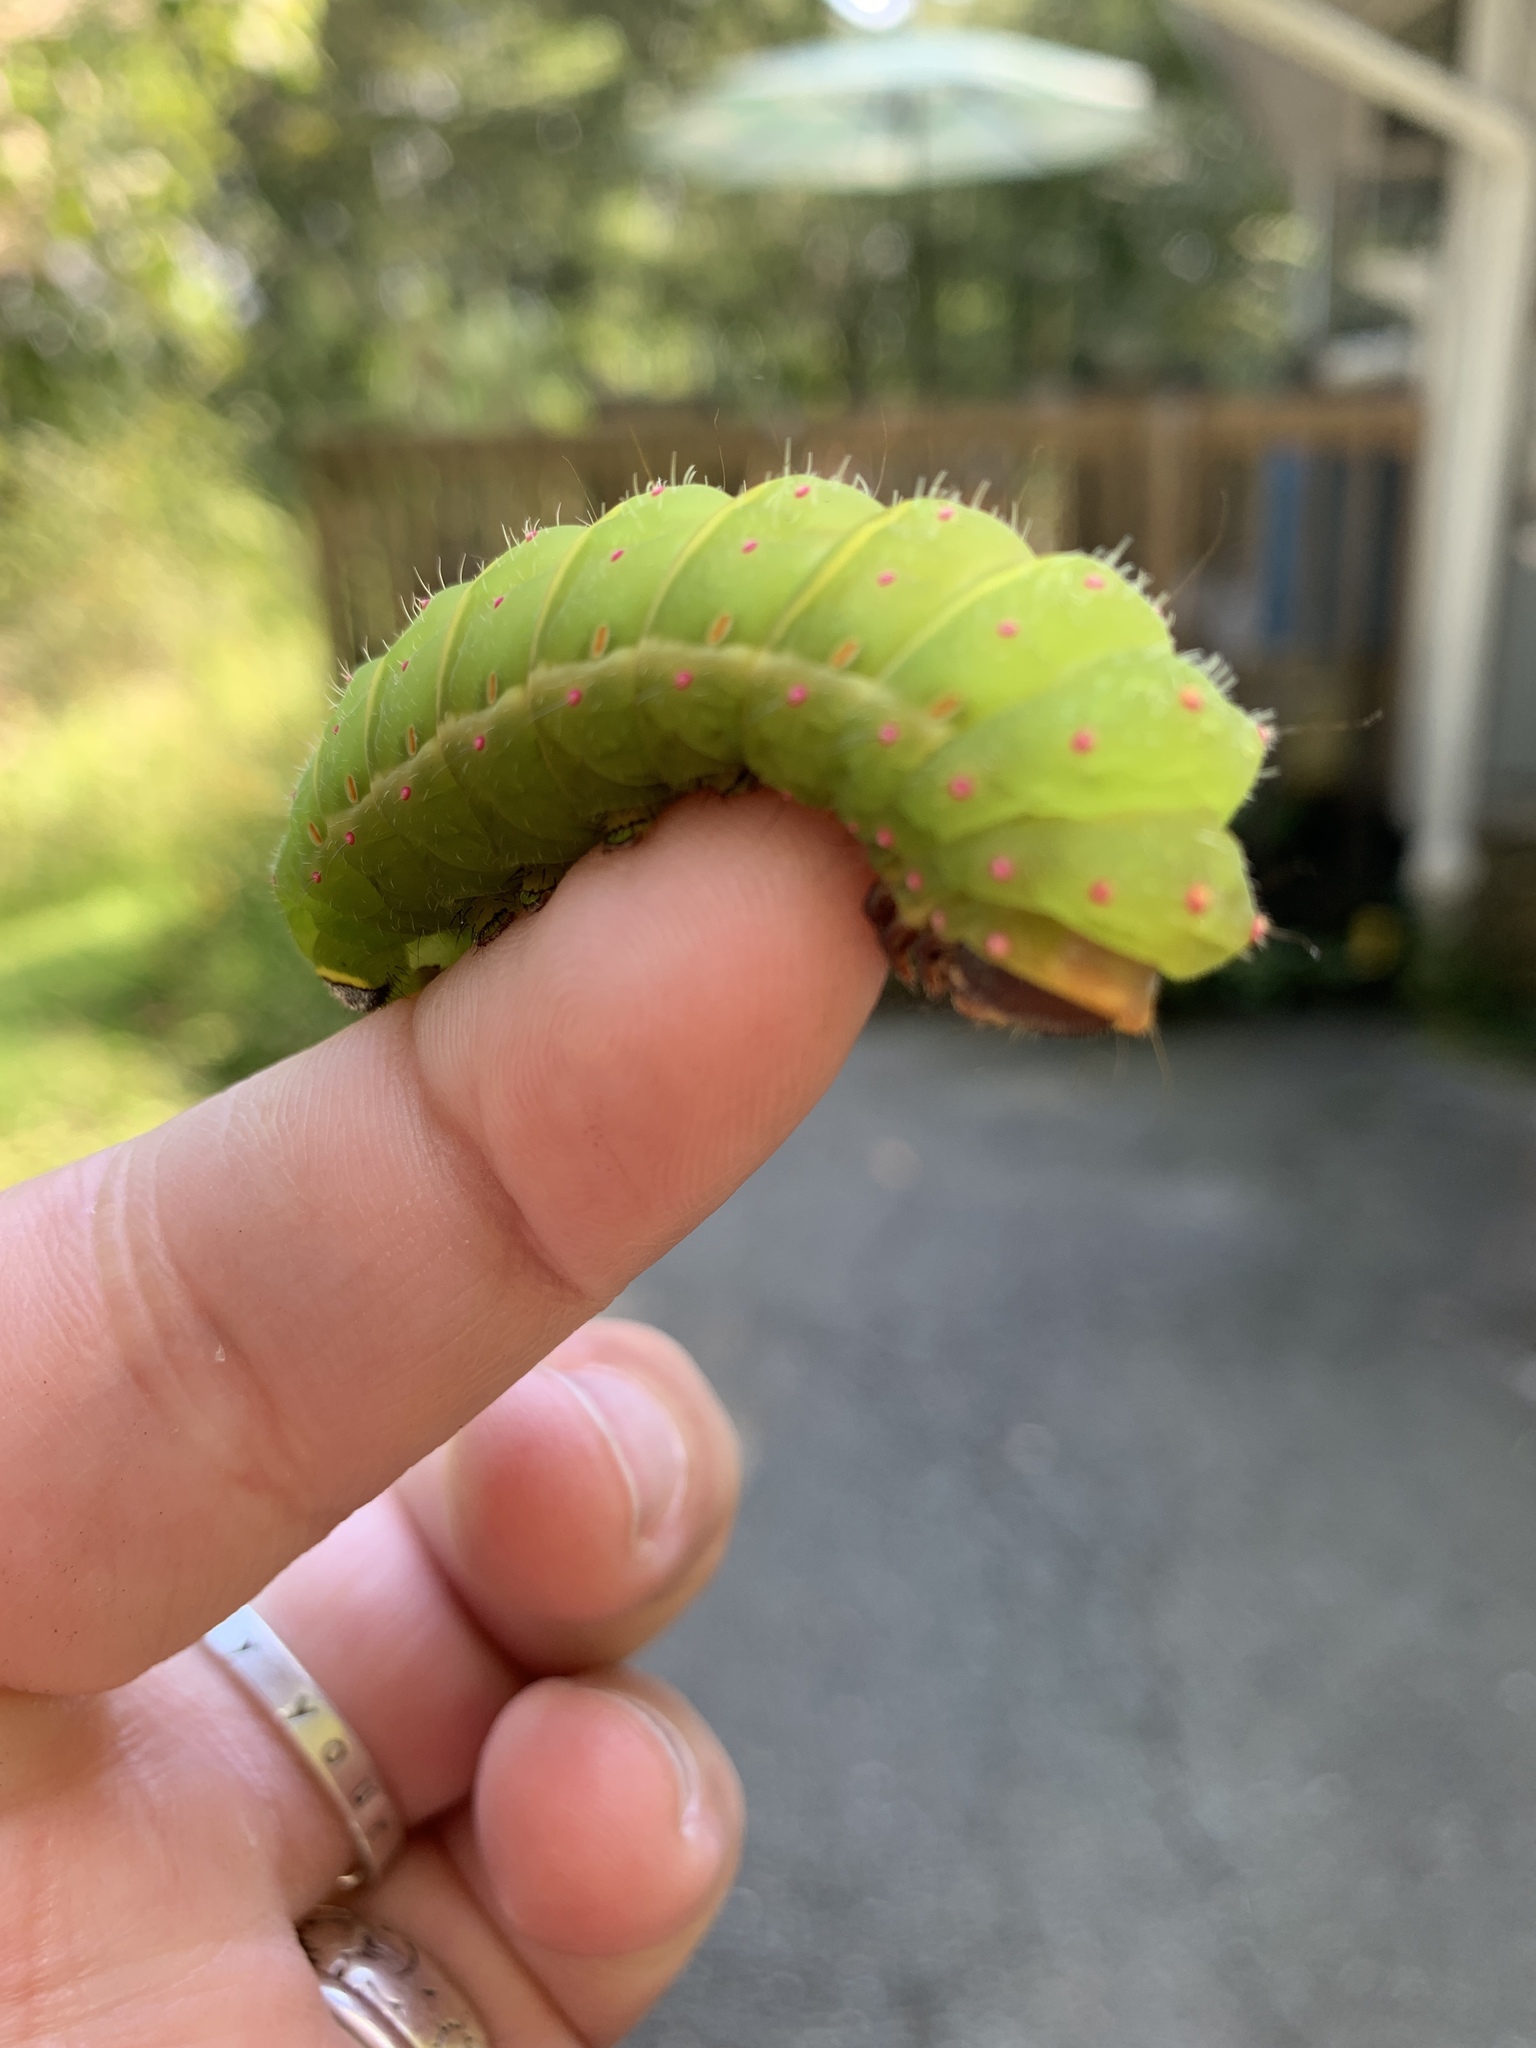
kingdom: Animalia
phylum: Arthropoda
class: Insecta
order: Lepidoptera
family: Saturniidae
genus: Actias
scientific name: Actias luna
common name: Luna moth
